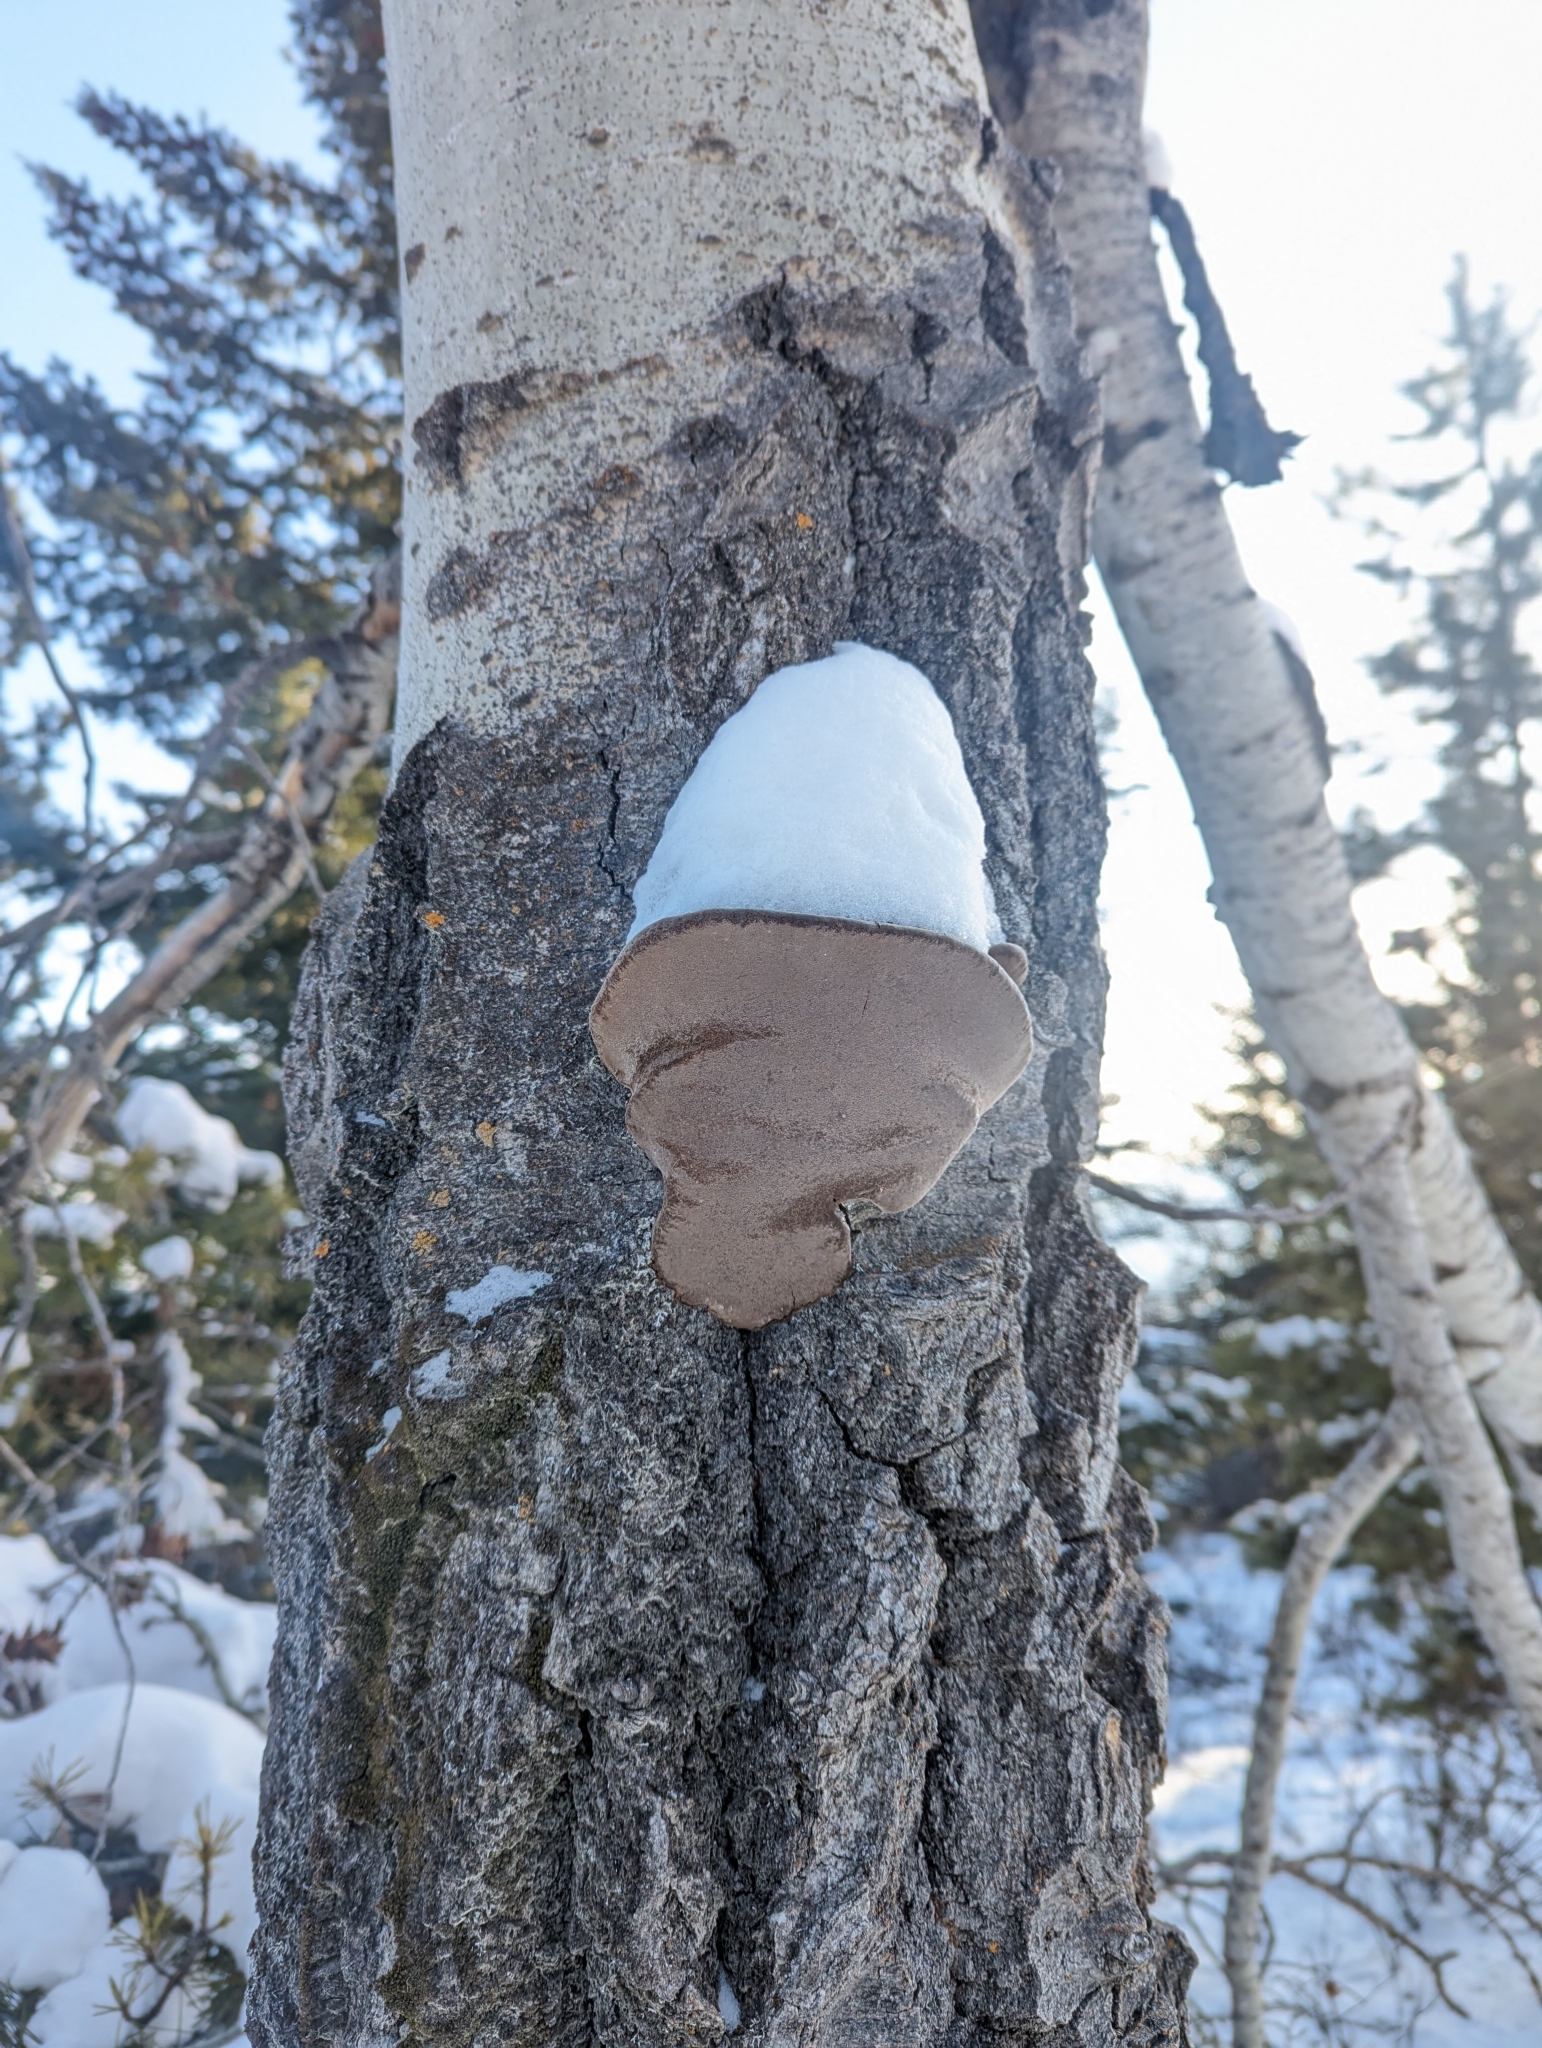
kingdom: Fungi
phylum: Basidiomycota
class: Agaricomycetes
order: Hymenochaetales
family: Hymenochaetaceae
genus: Phellinus
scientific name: Phellinus tremulae
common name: Aspen bracket
